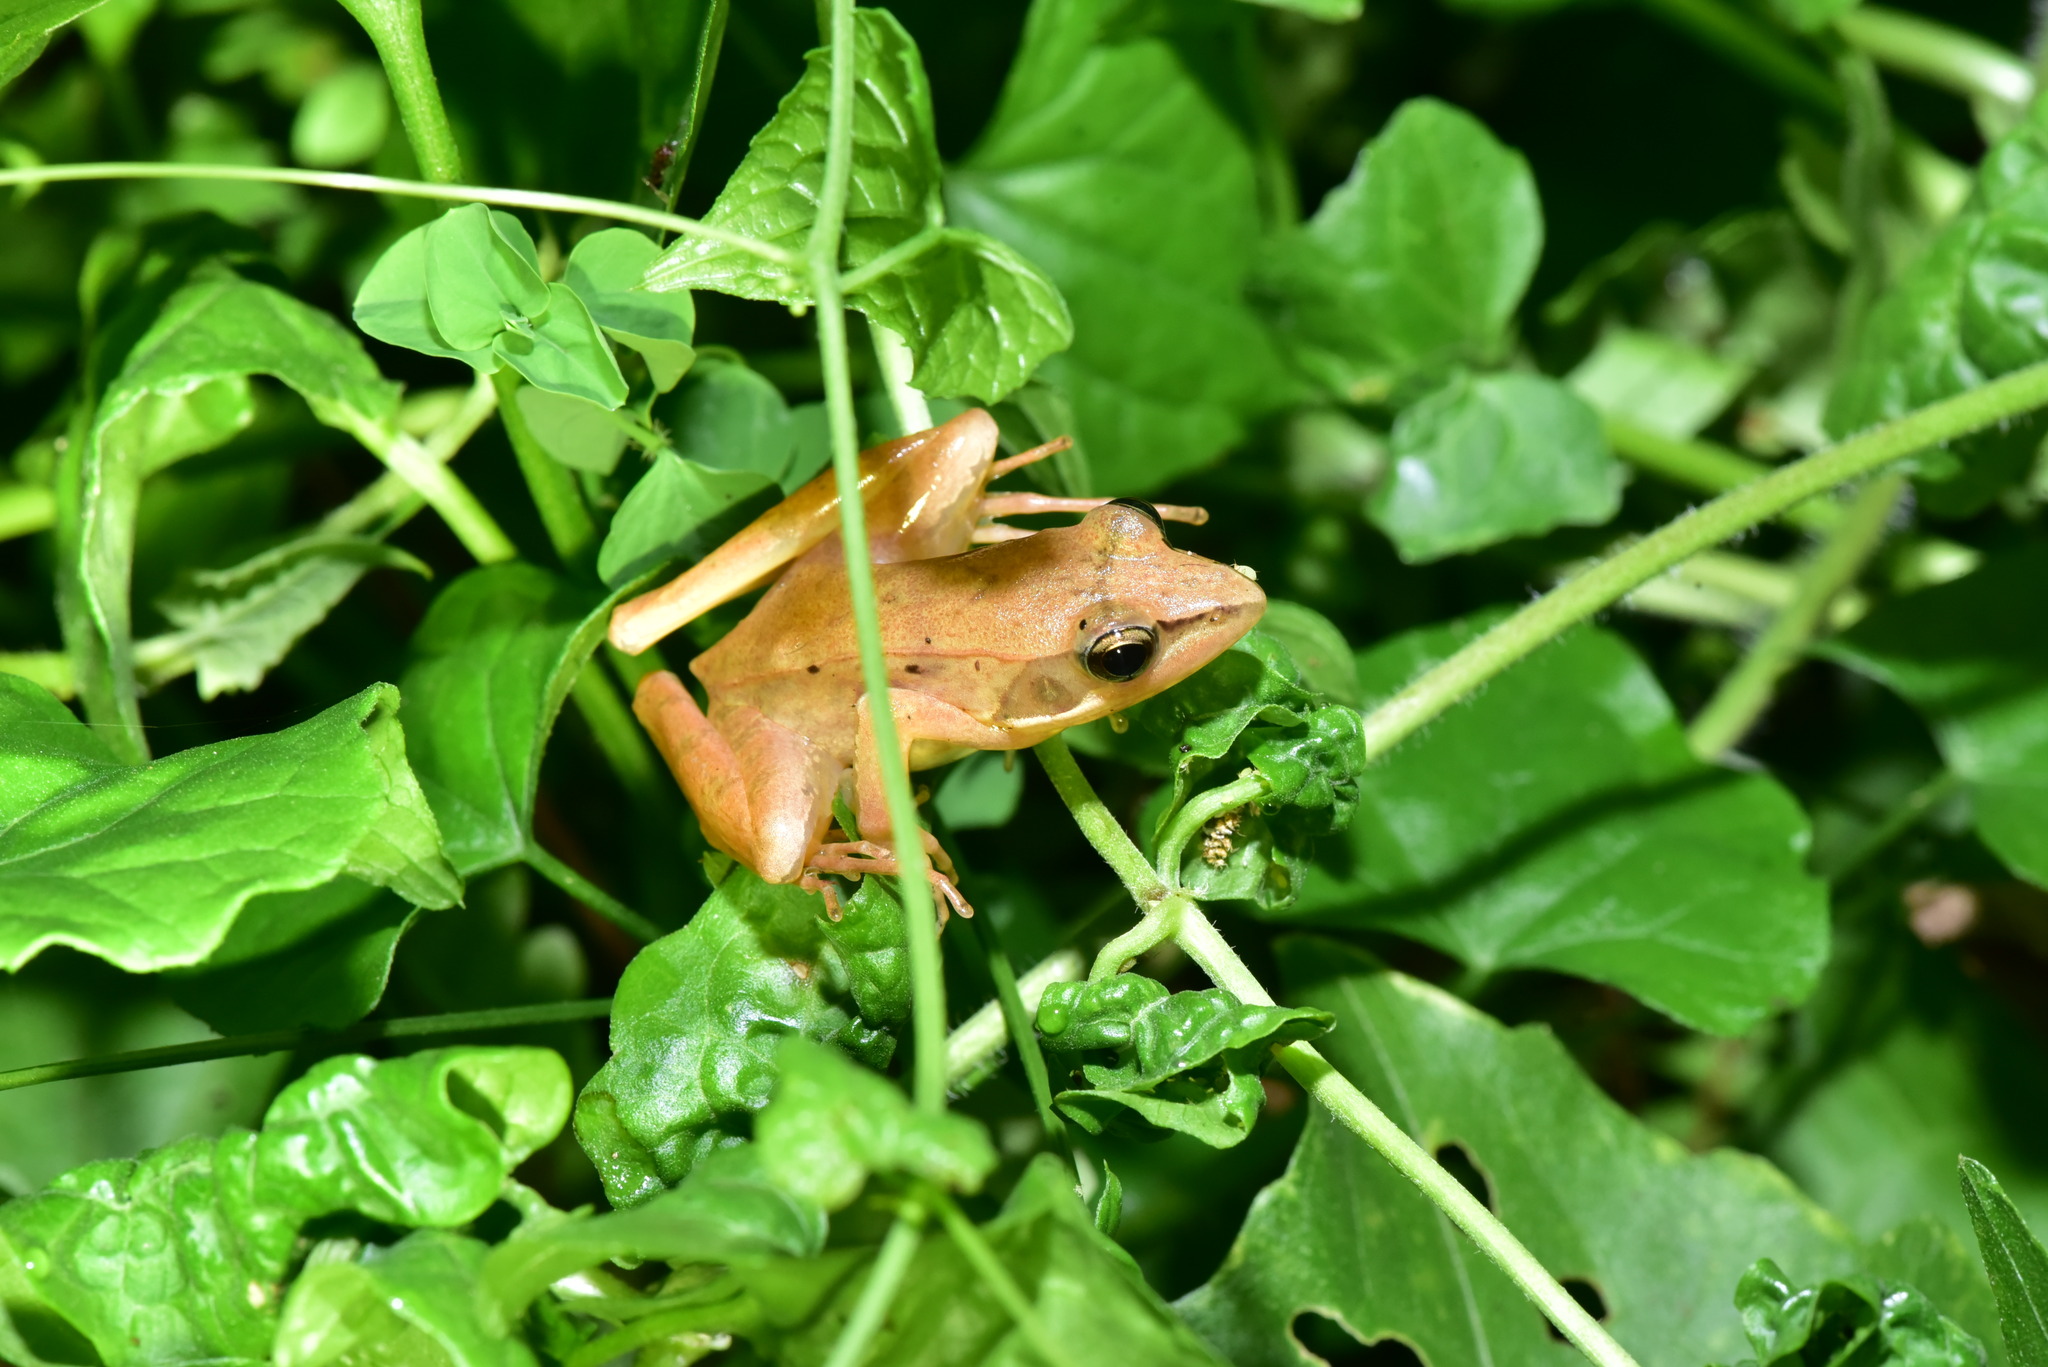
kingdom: Animalia
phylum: Chordata
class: Amphibia
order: Anura
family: Ranidae
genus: Rana
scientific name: Rana longicrus
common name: Long-legged brown frog
